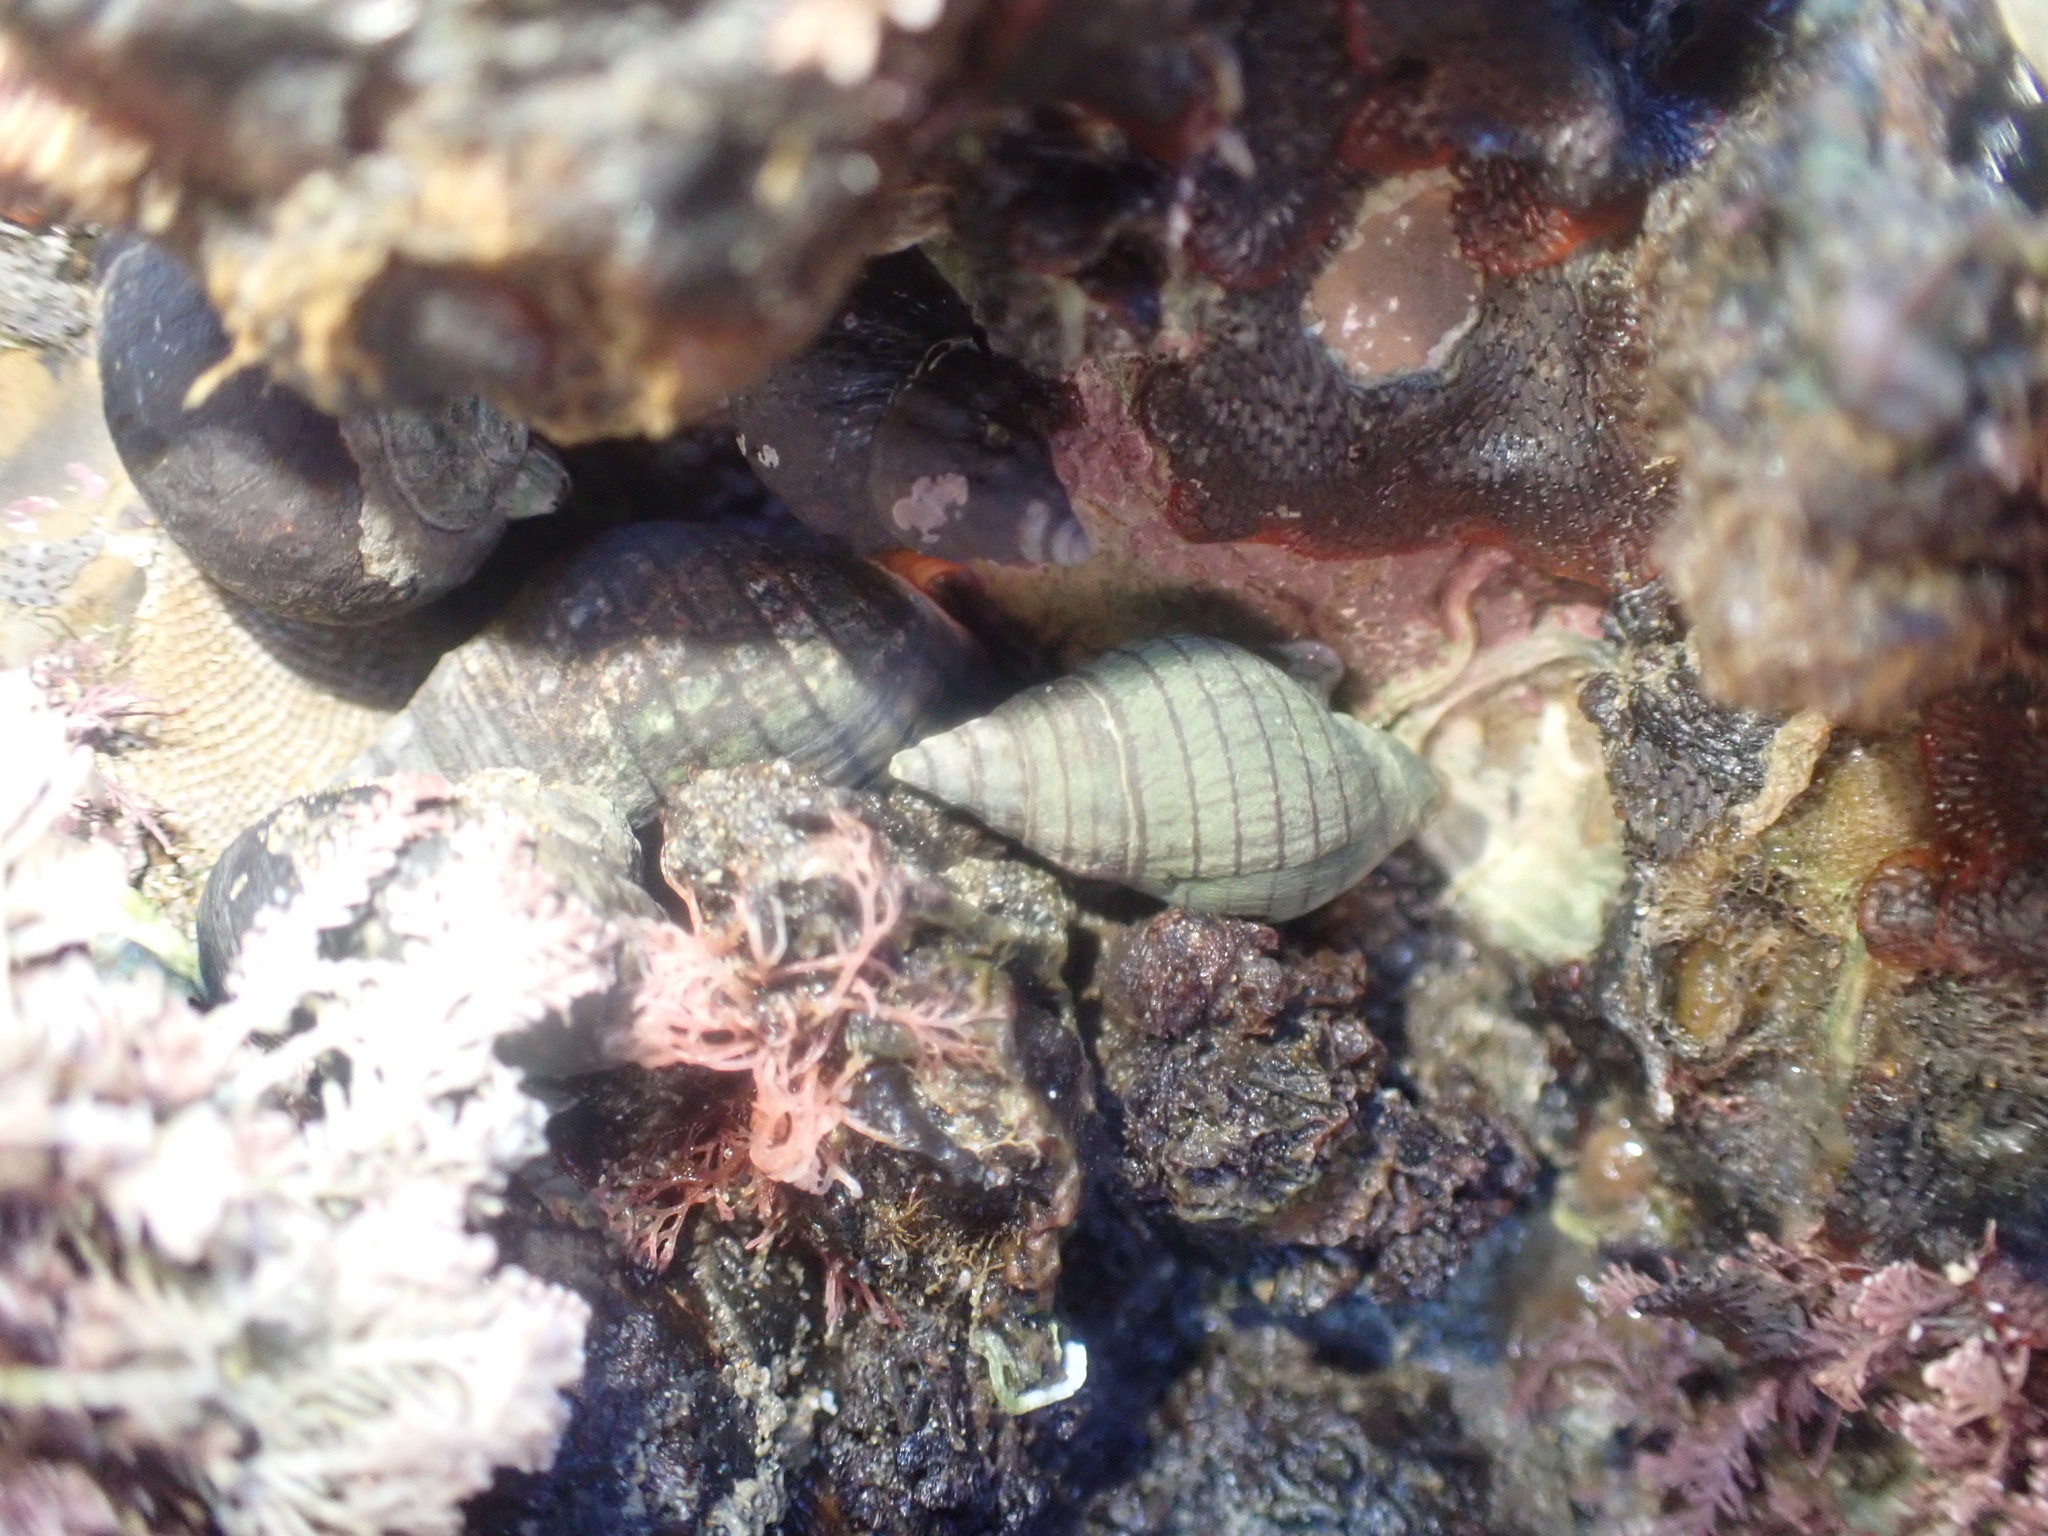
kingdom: Animalia
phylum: Mollusca
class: Gastropoda
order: Neogastropoda
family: Cominellidae
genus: Cominella
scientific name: Cominella virgata
